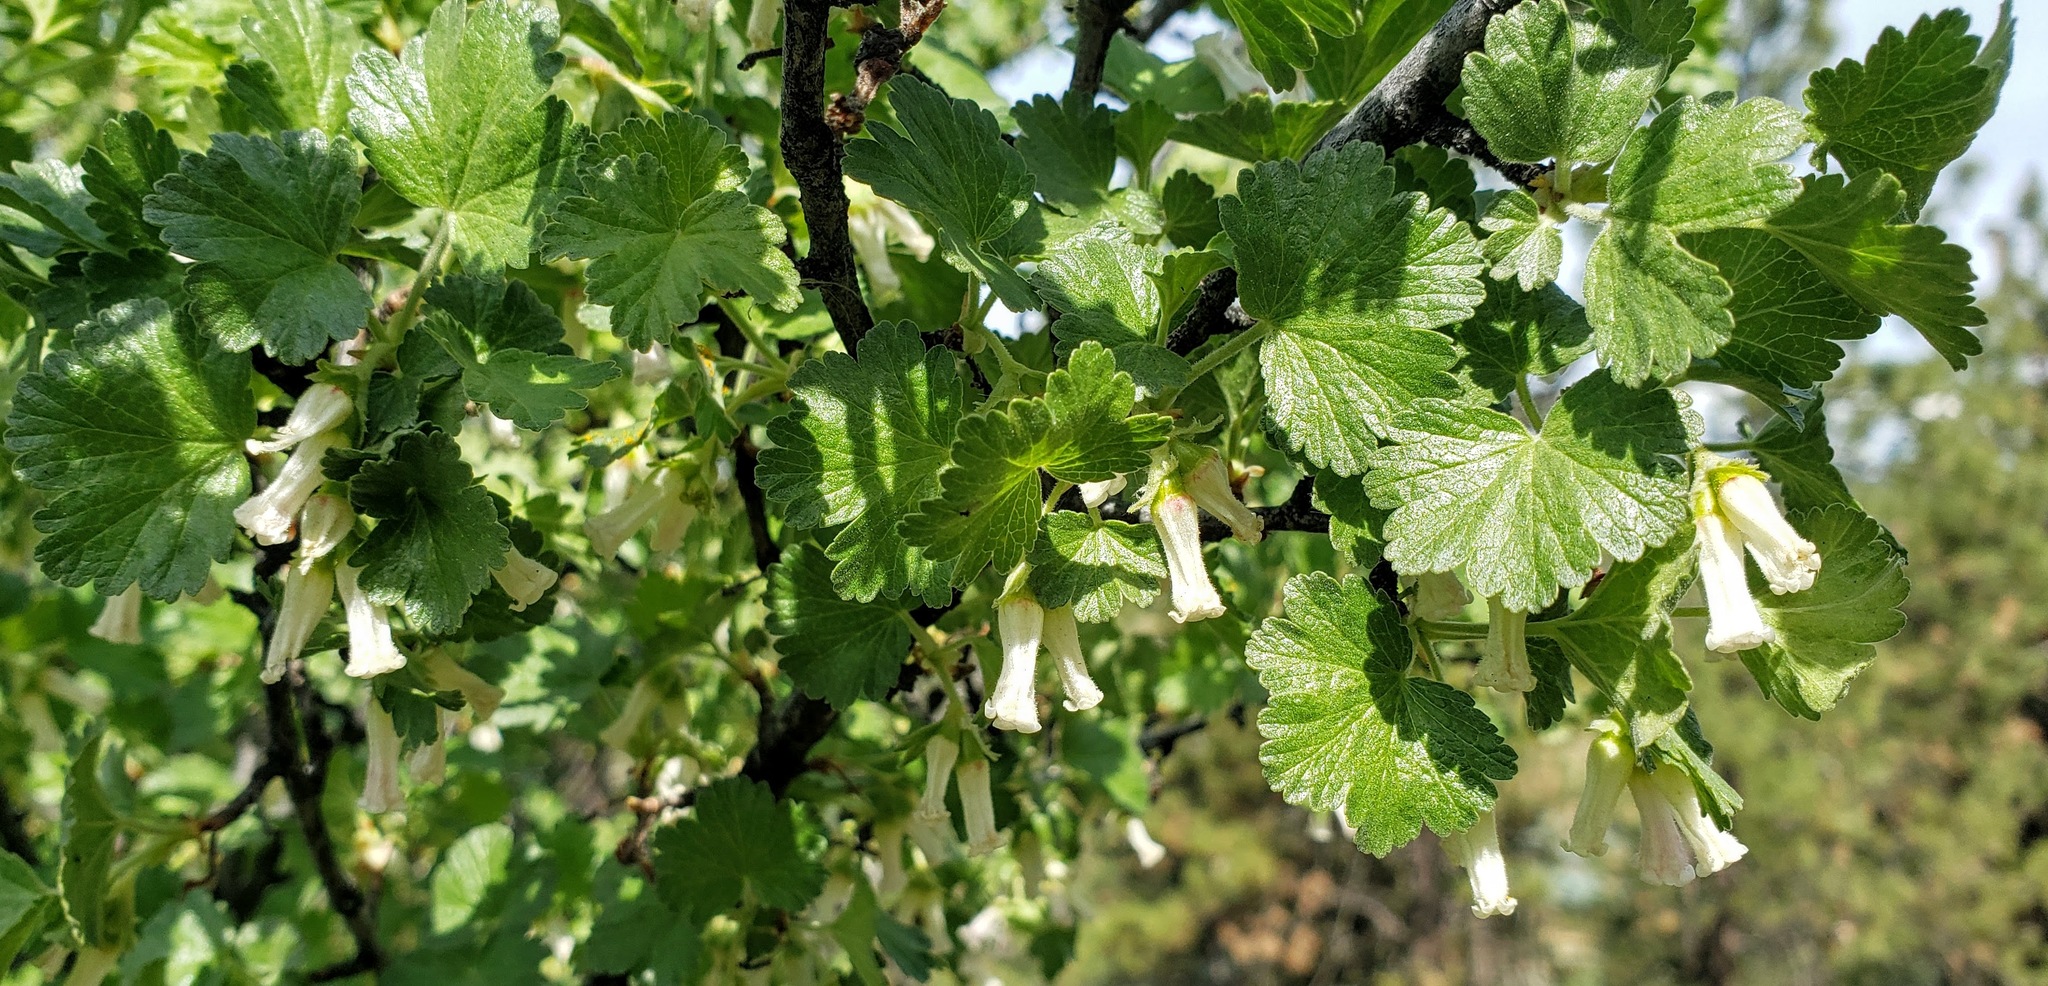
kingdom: Plantae
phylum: Tracheophyta
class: Magnoliopsida
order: Saxifragales
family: Grossulariaceae
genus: Ribes
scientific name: Ribes cereum
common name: Wax currant
